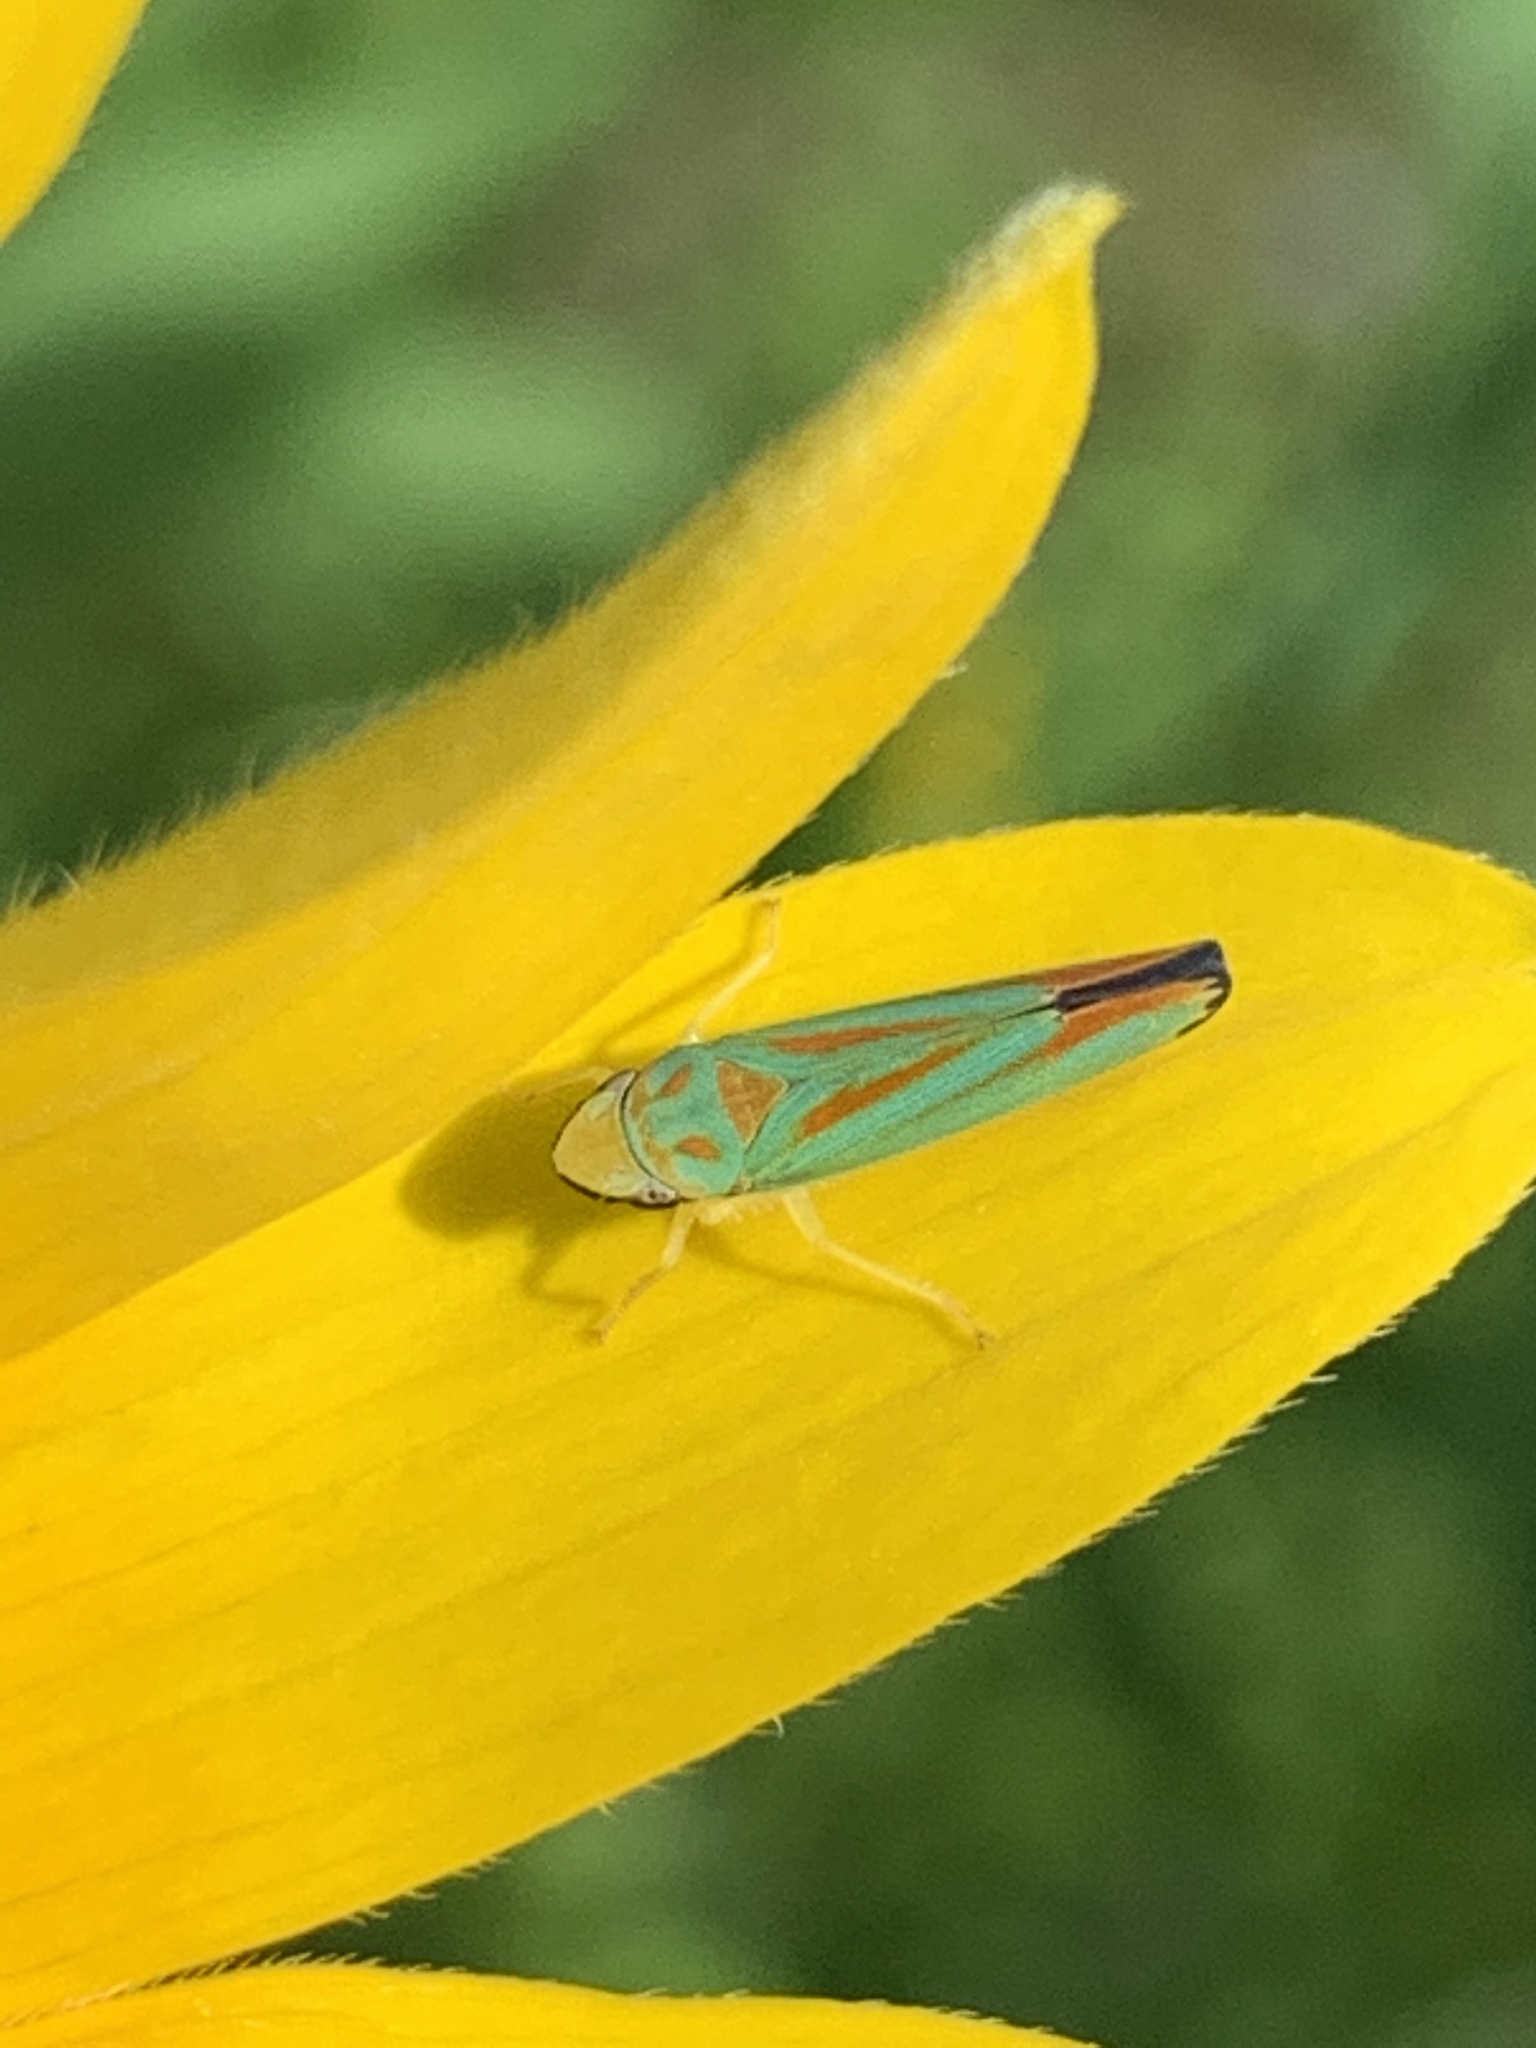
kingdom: Animalia
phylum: Arthropoda
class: Insecta
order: Hemiptera
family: Cicadellidae
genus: Graphocephala
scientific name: Graphocephala fennahi
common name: Rhododendron leafhopper
